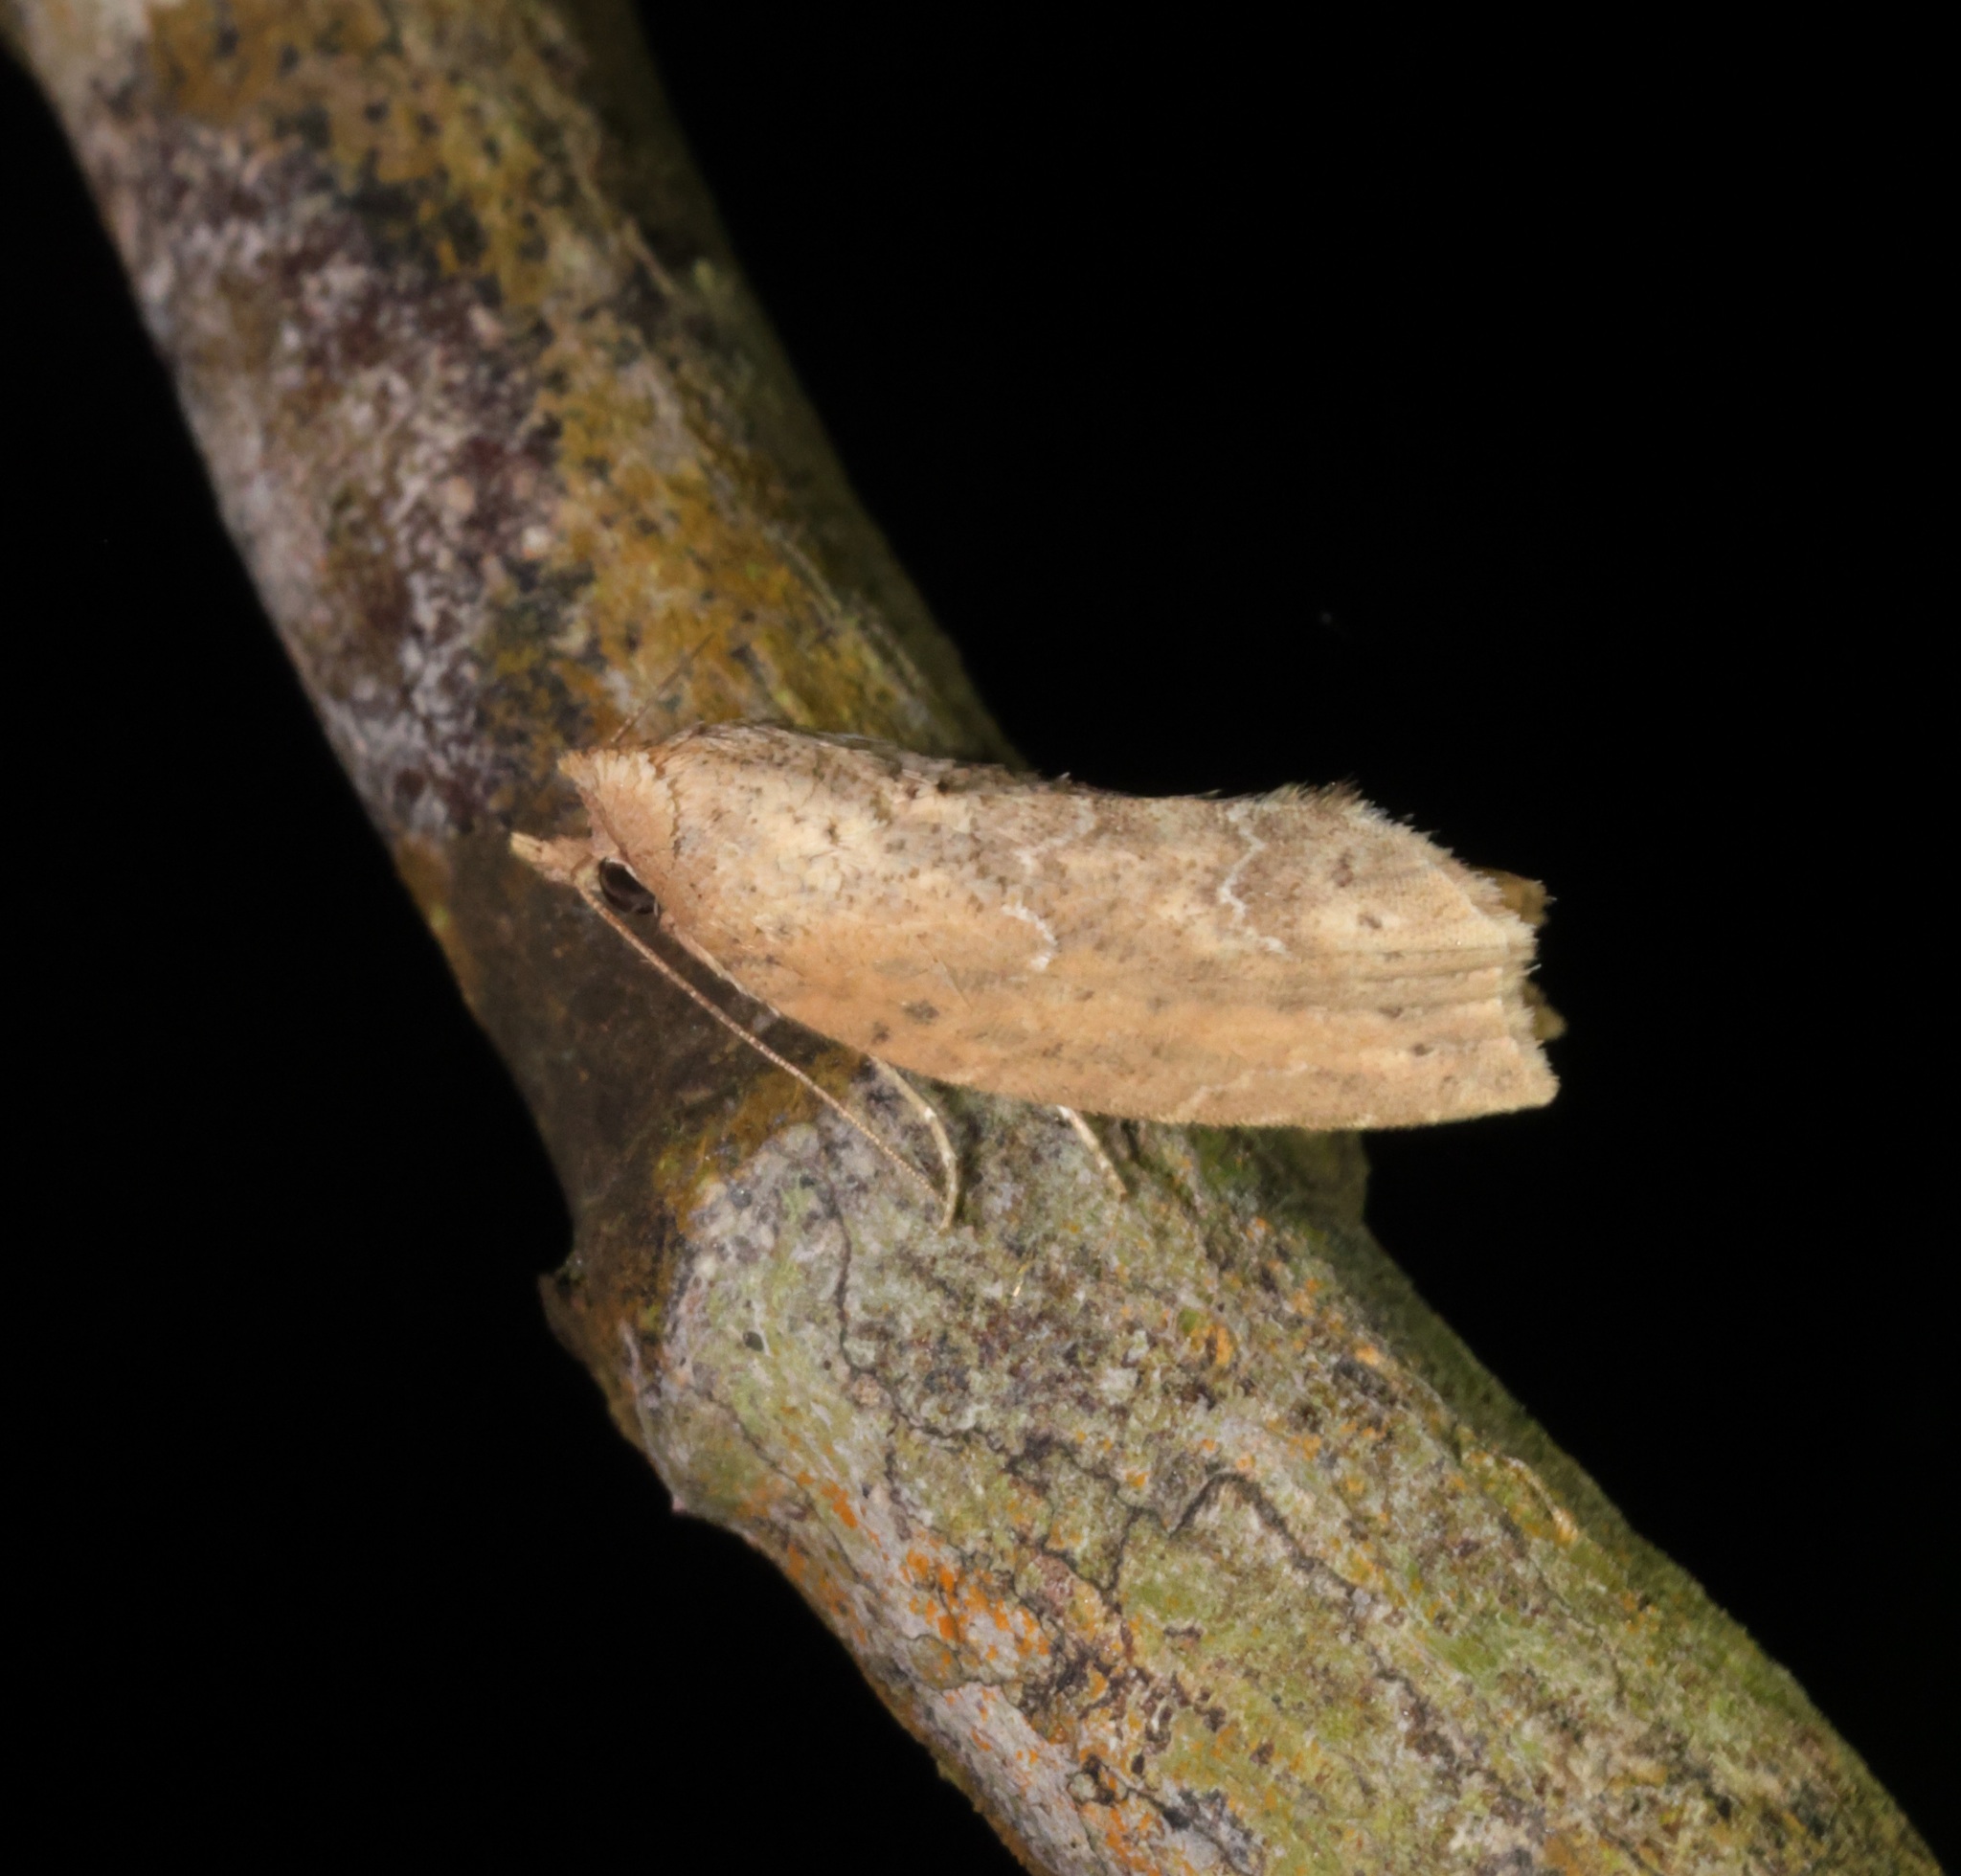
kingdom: Animalia
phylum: Arthropoda
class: Insecta
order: Lepidoptera
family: Nolidae
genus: Camptozada
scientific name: Camptozada mirabilis
